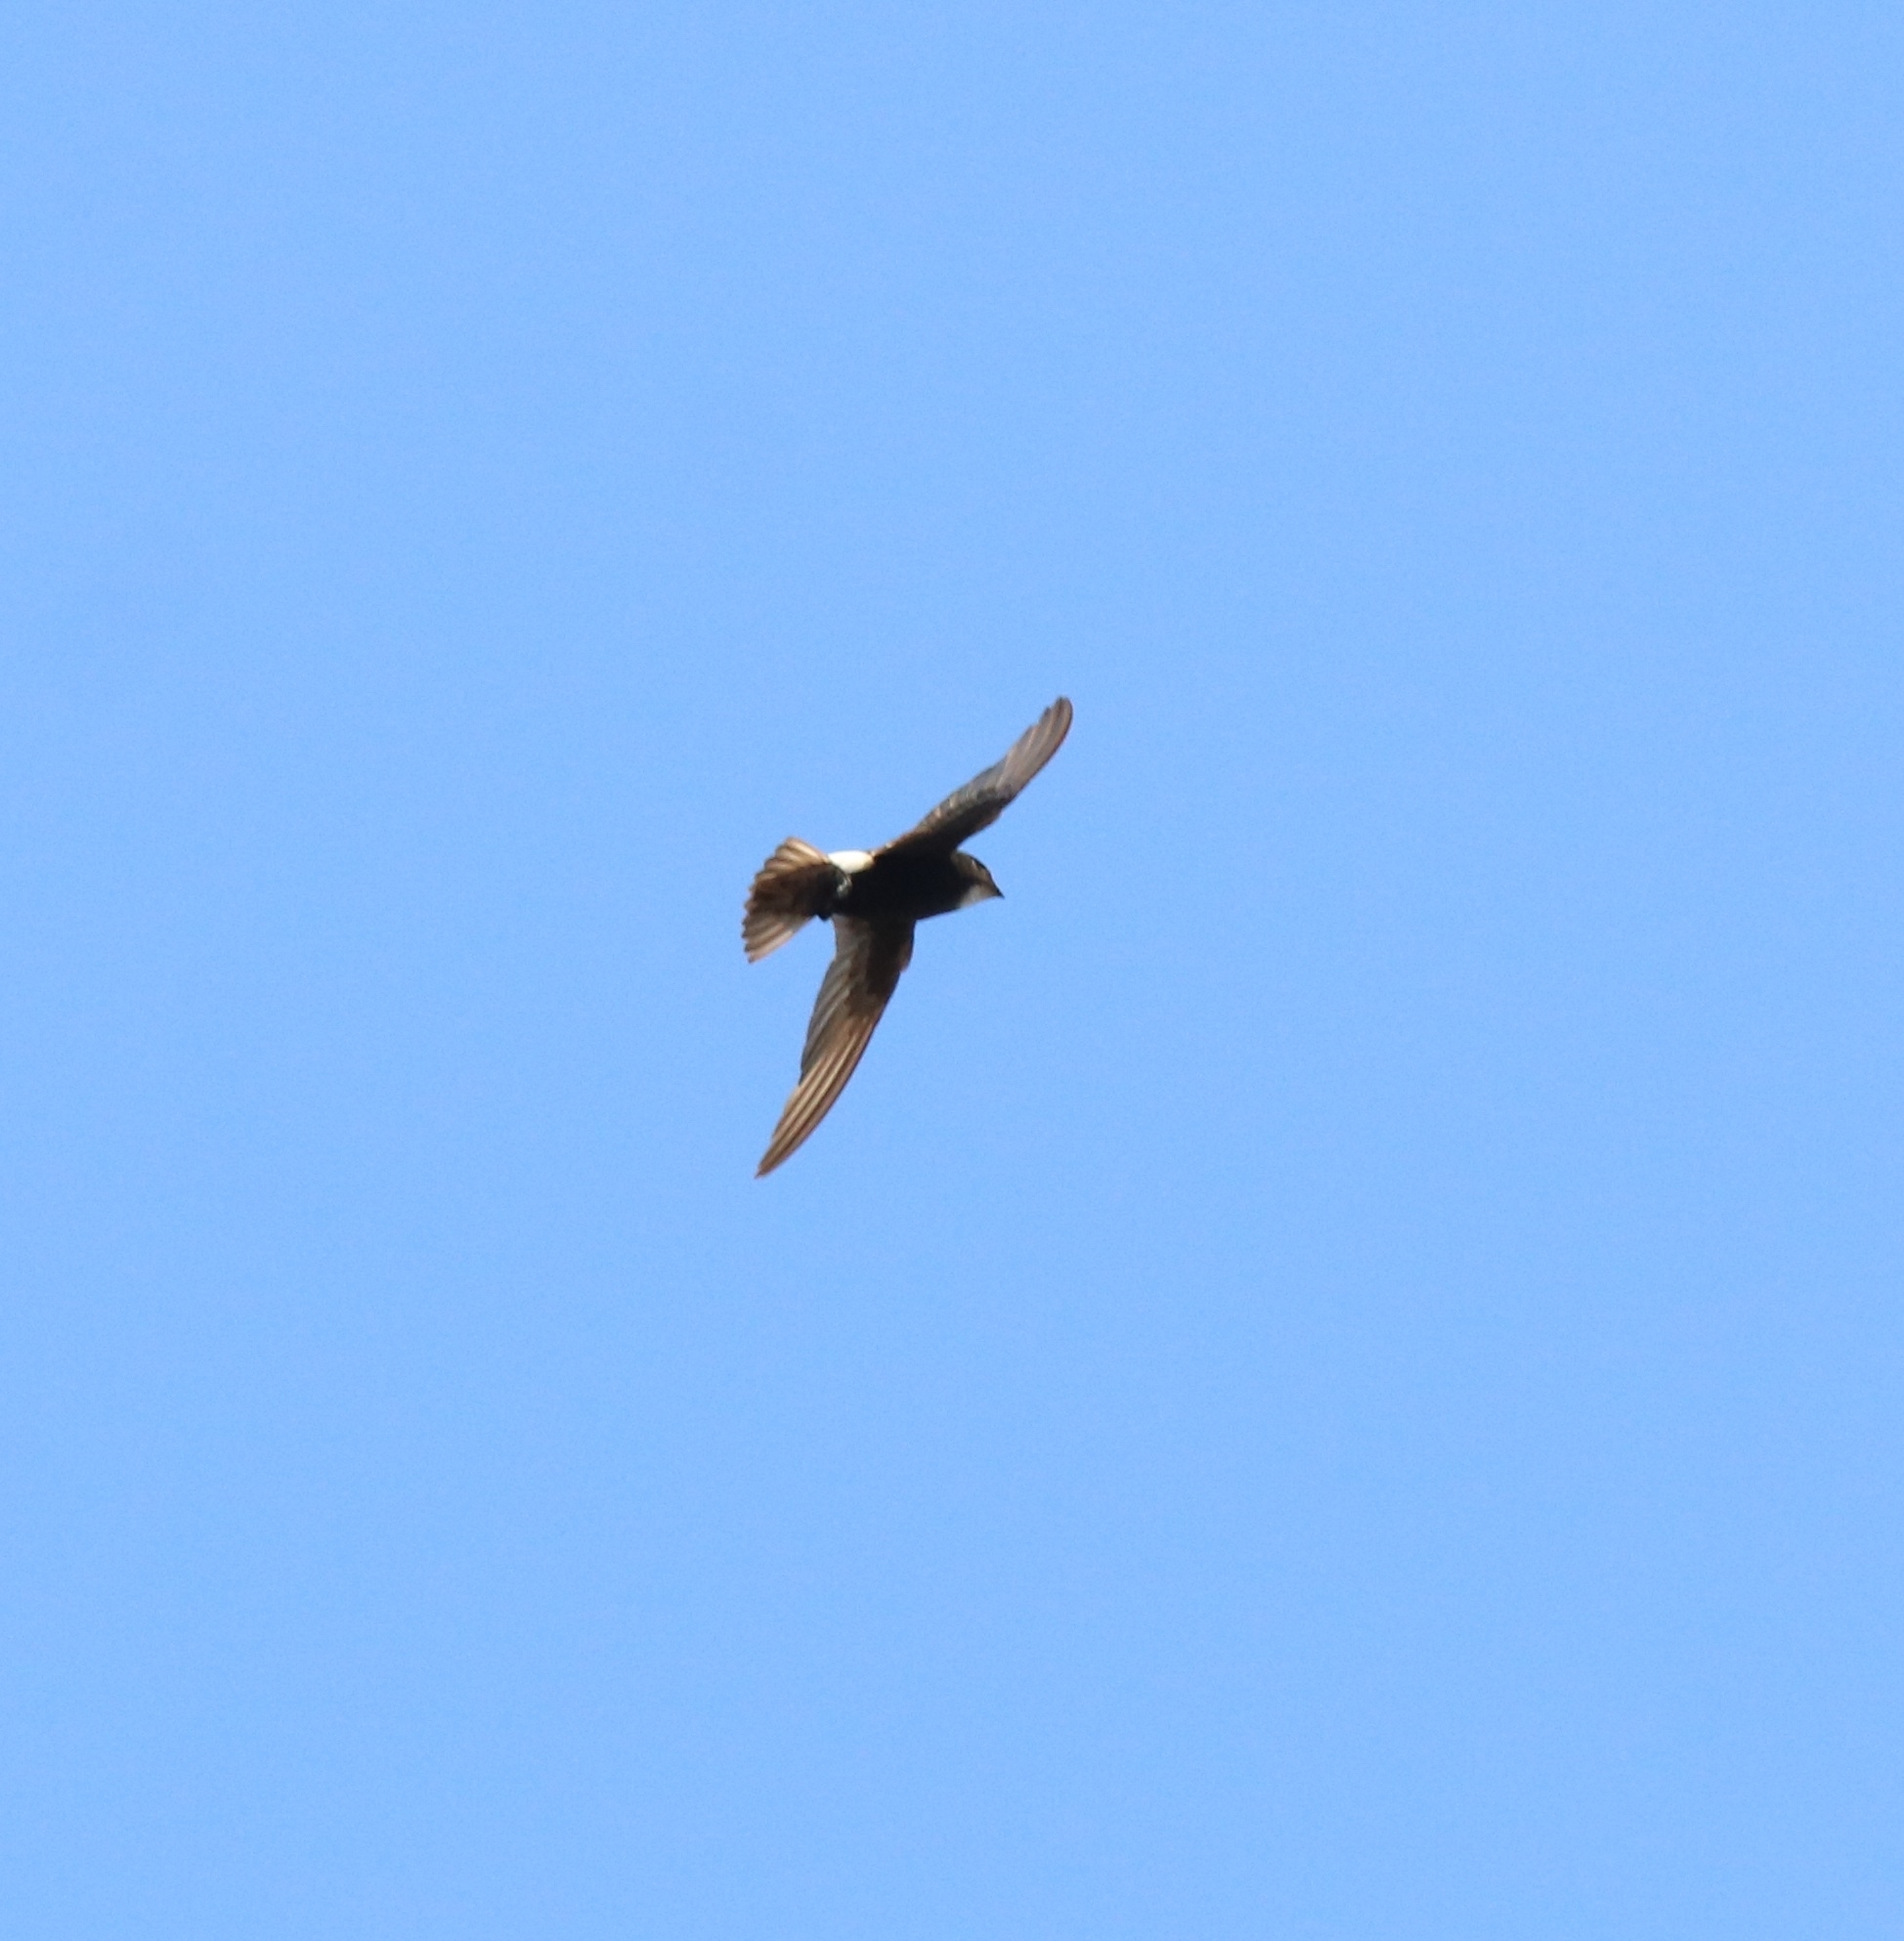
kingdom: Animalia
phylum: Chordata
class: Aves
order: Apodiformes
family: Apodidae
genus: Apus
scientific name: Apus affinis
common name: Little swift
